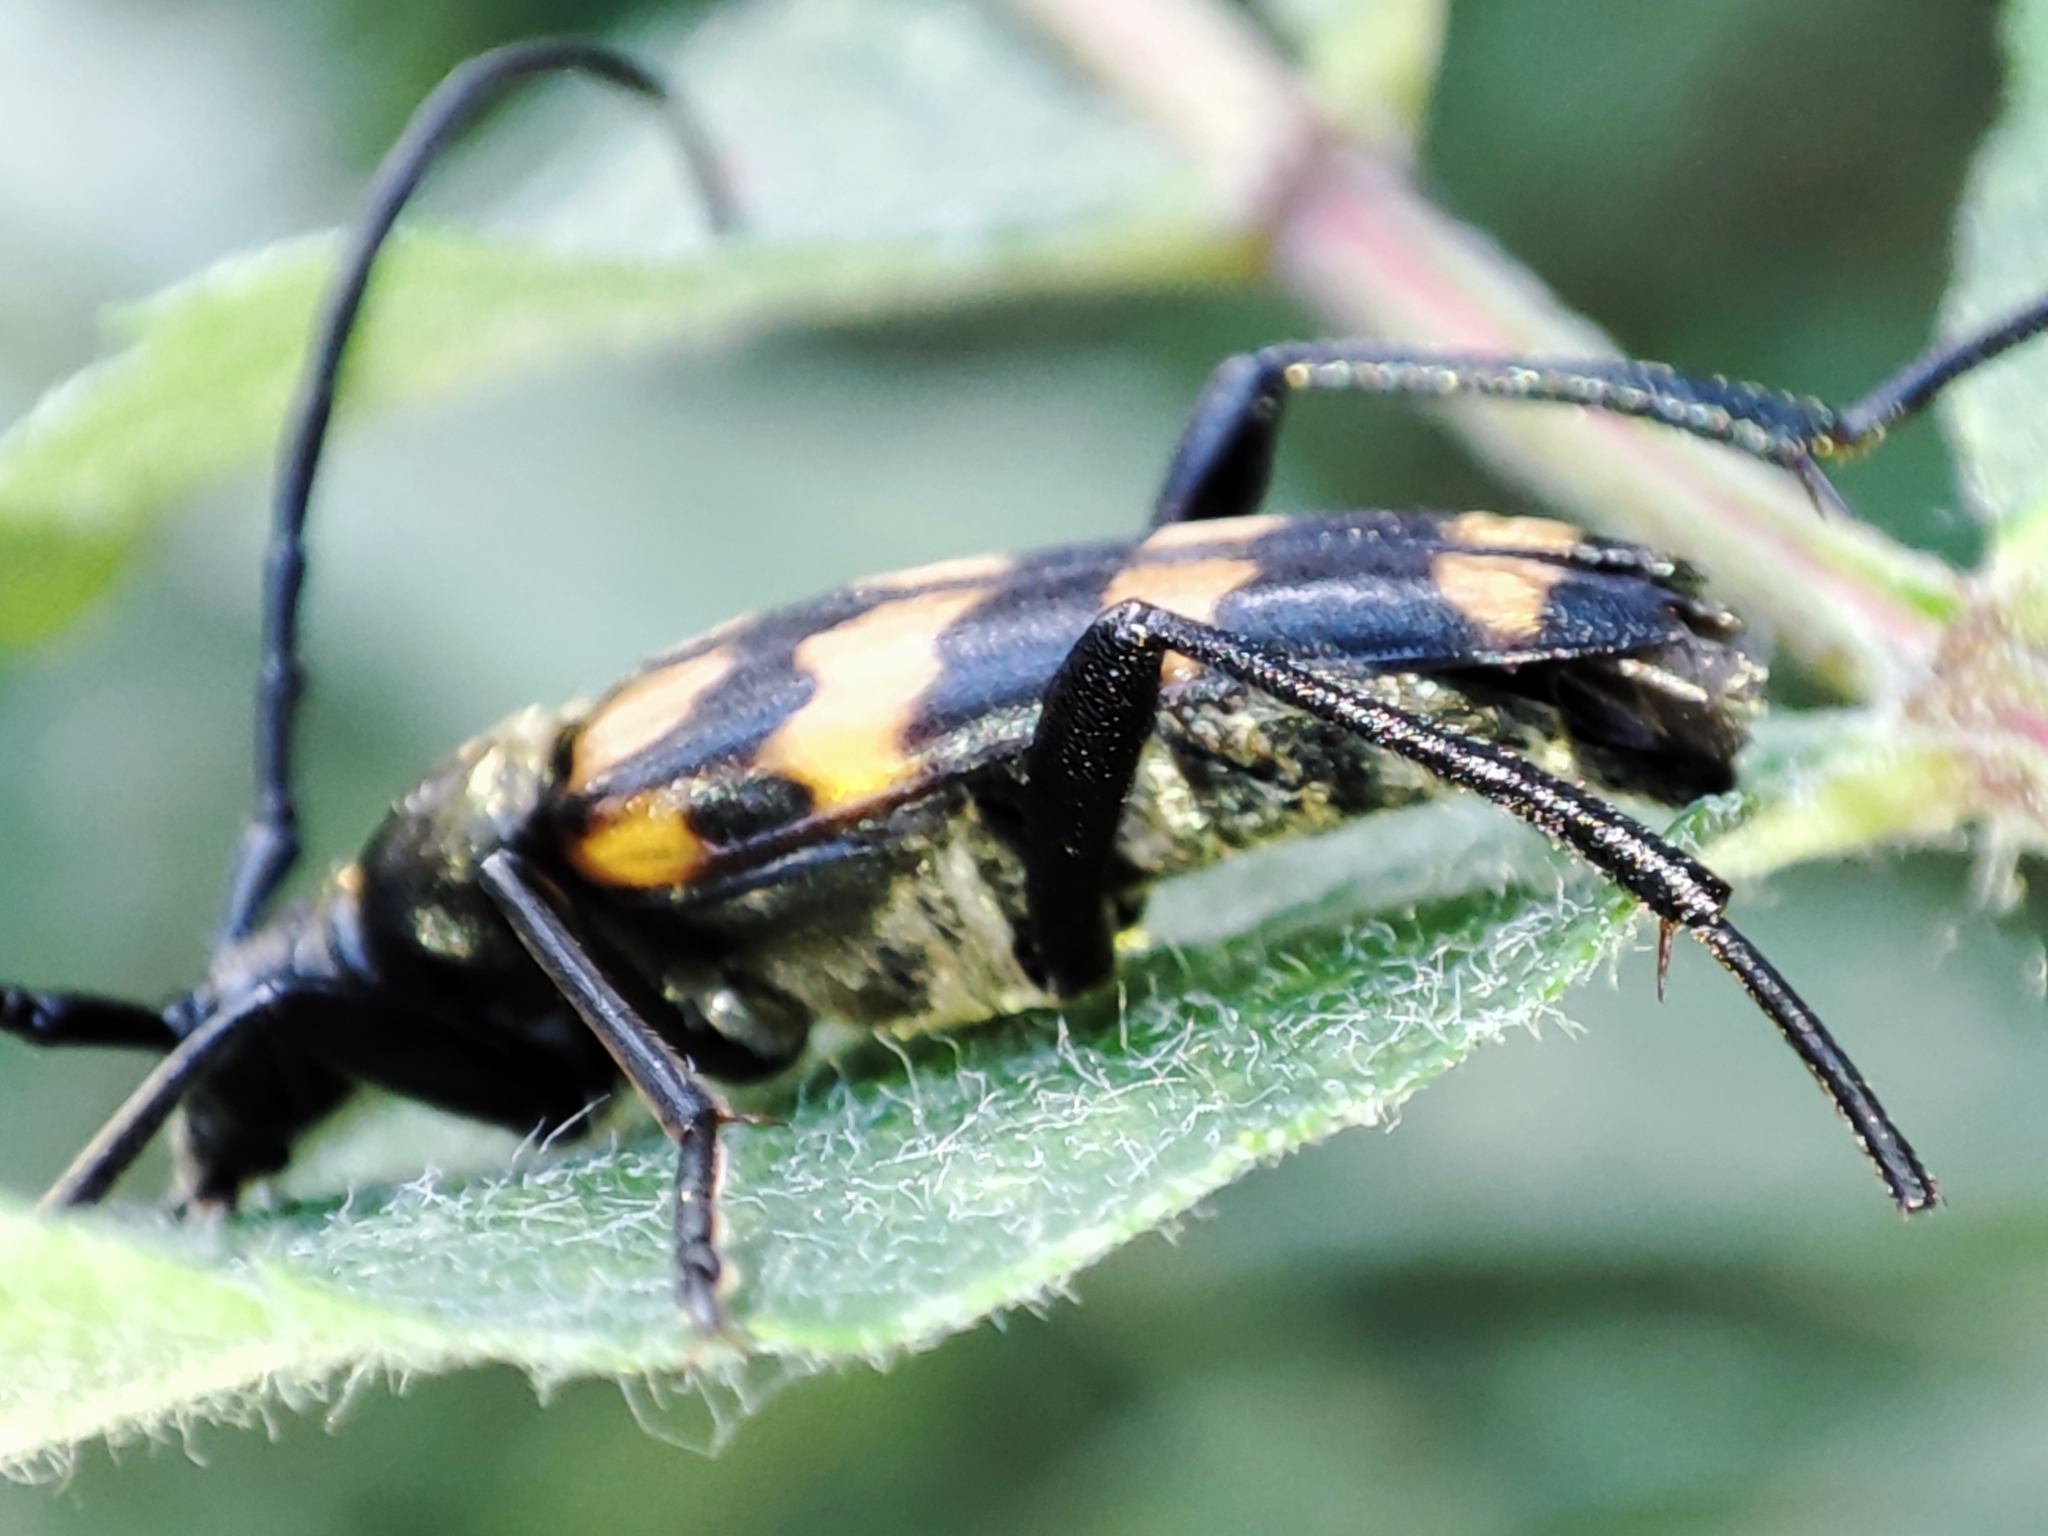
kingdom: Animalia
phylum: Arthropoda
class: Insecta
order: Coleoptera
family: Cerambycidae
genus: Leptura
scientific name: Leptura quadrifasciata
